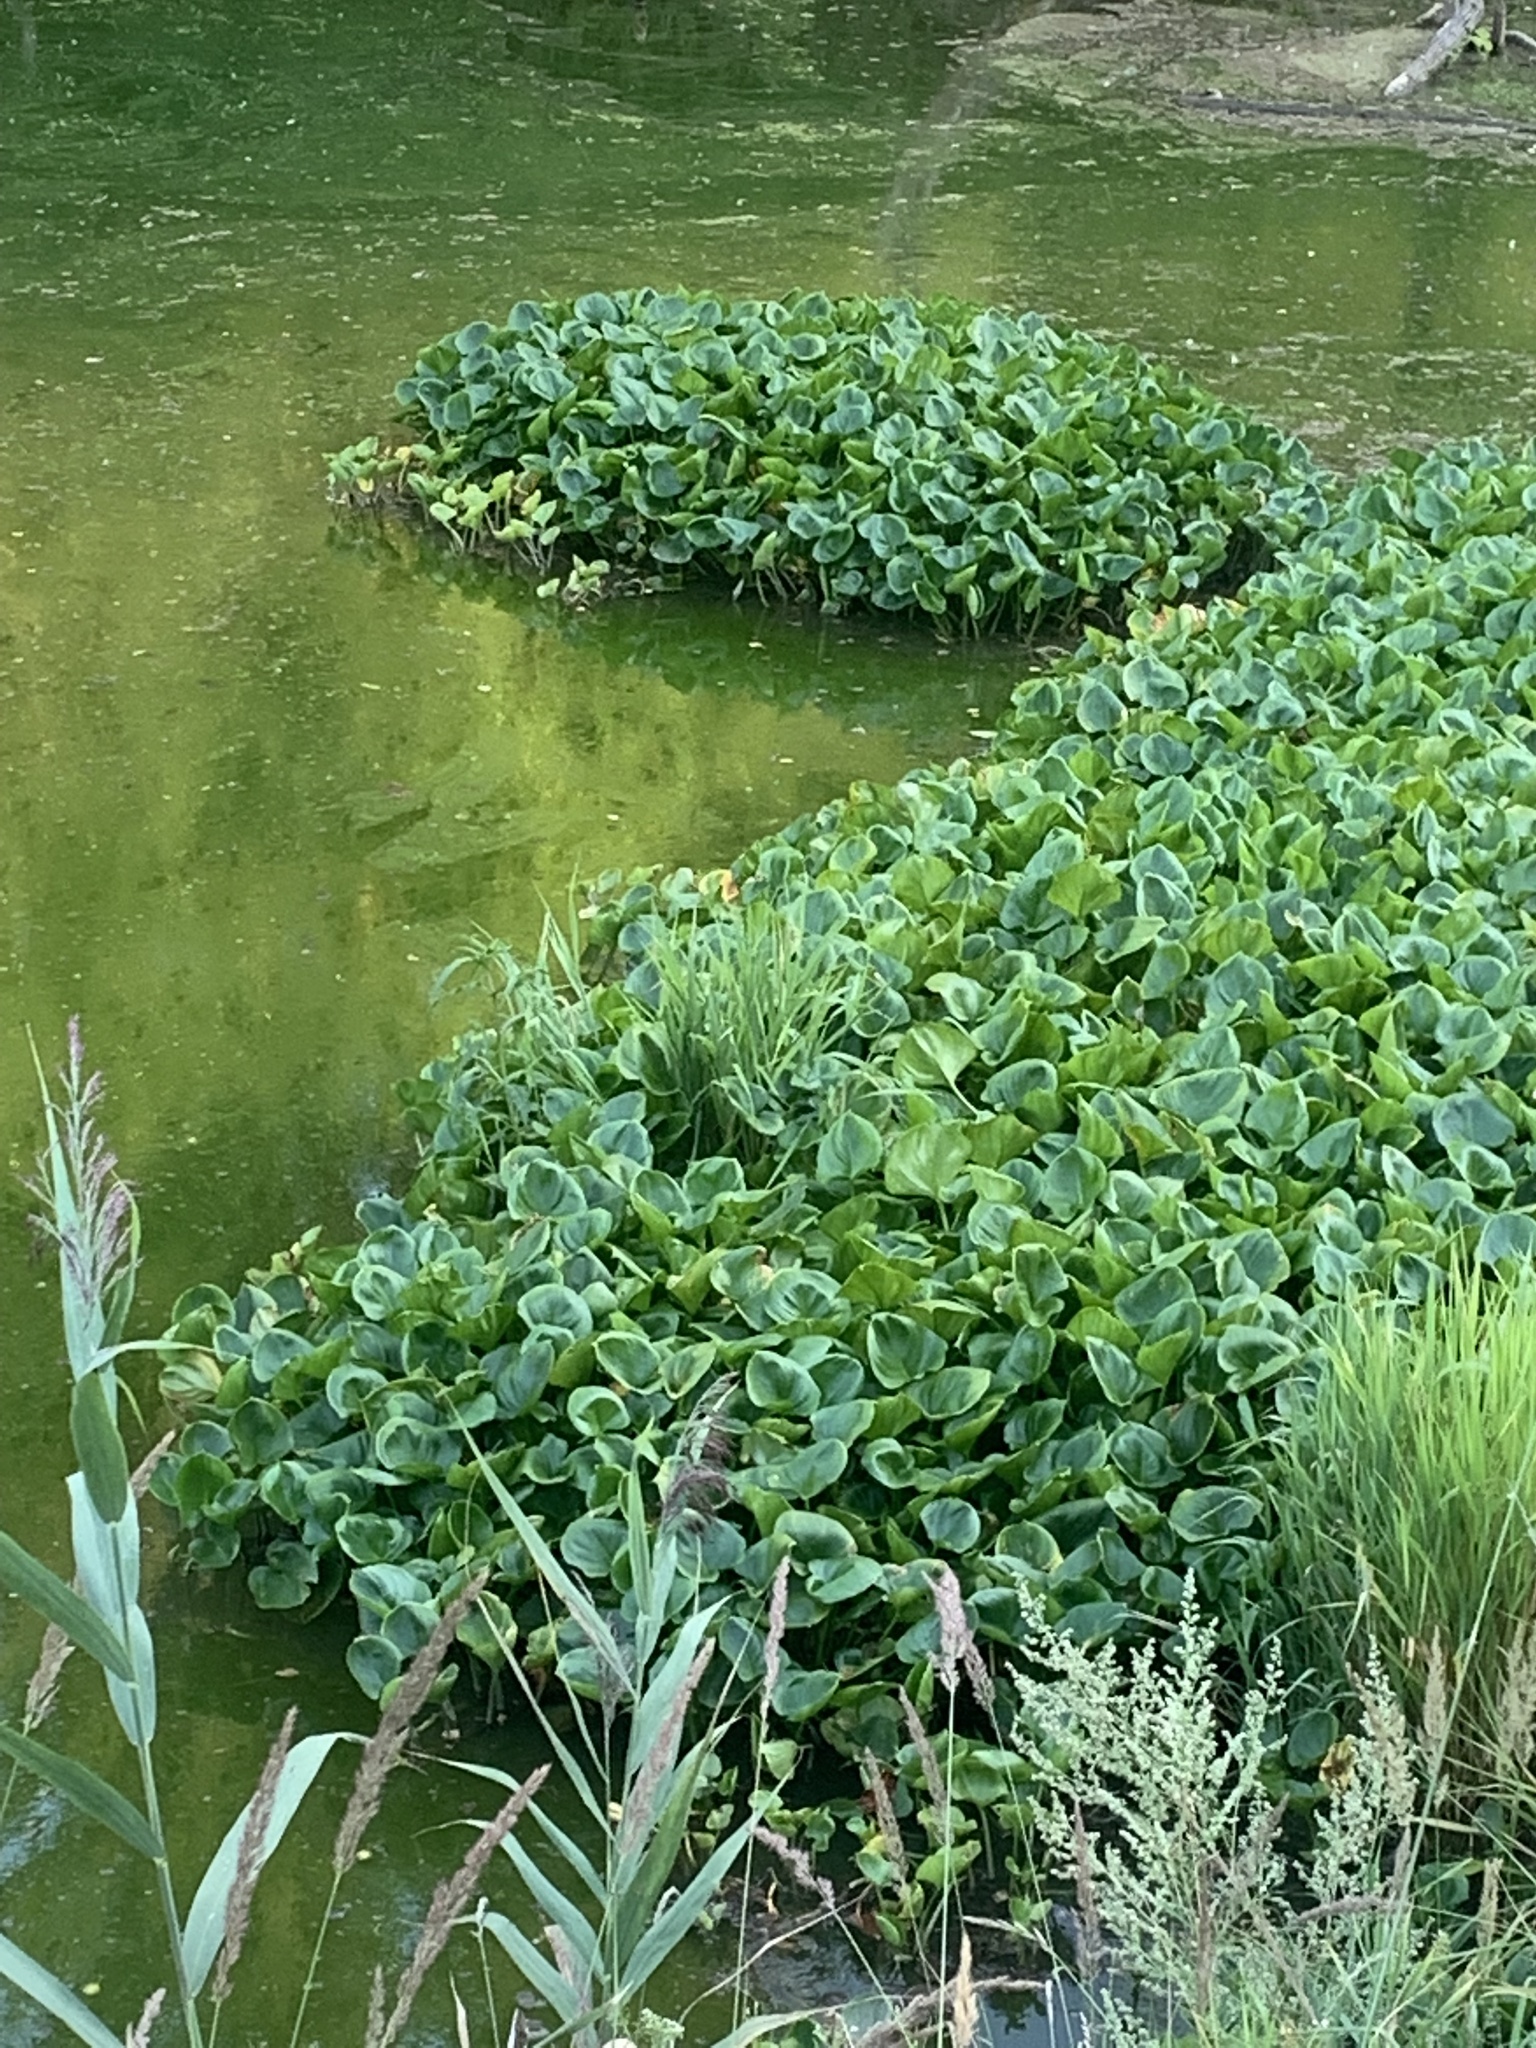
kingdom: Plantae
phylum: Tracheophyta
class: Liliopsida
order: Alismatales
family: Araceae
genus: Calla
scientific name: Calla palustris
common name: Bog arum
